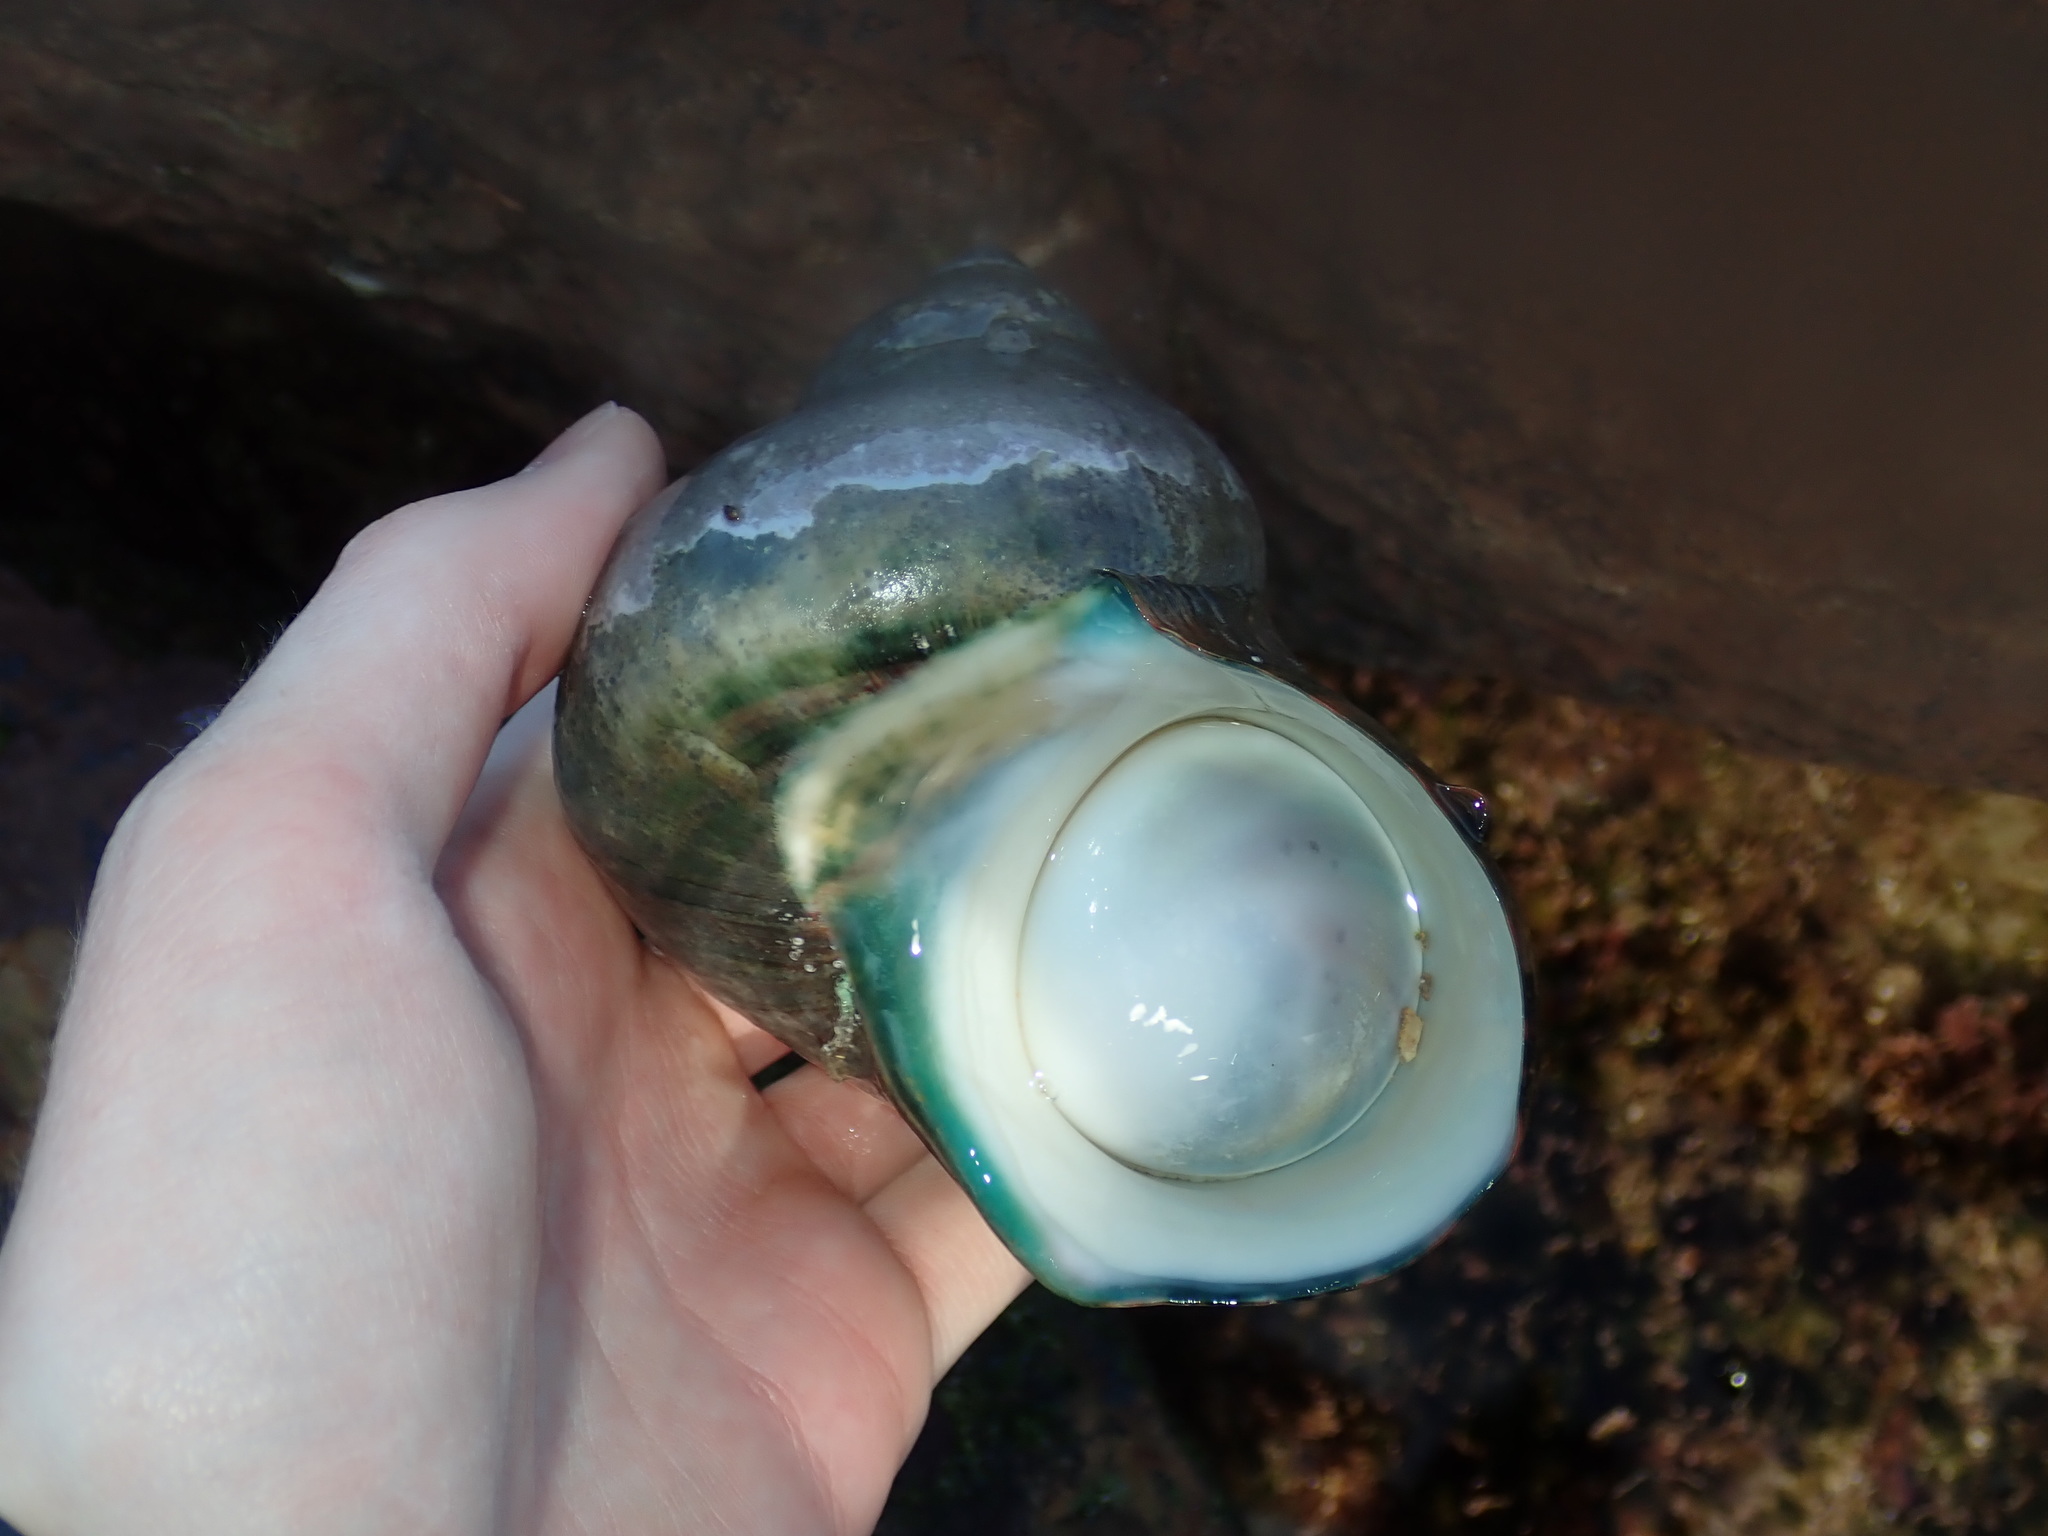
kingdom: Animalia
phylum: Mollusca
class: Gastropoda
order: Trochida
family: Turbinidae
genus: Turbo
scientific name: Turbo militaris
